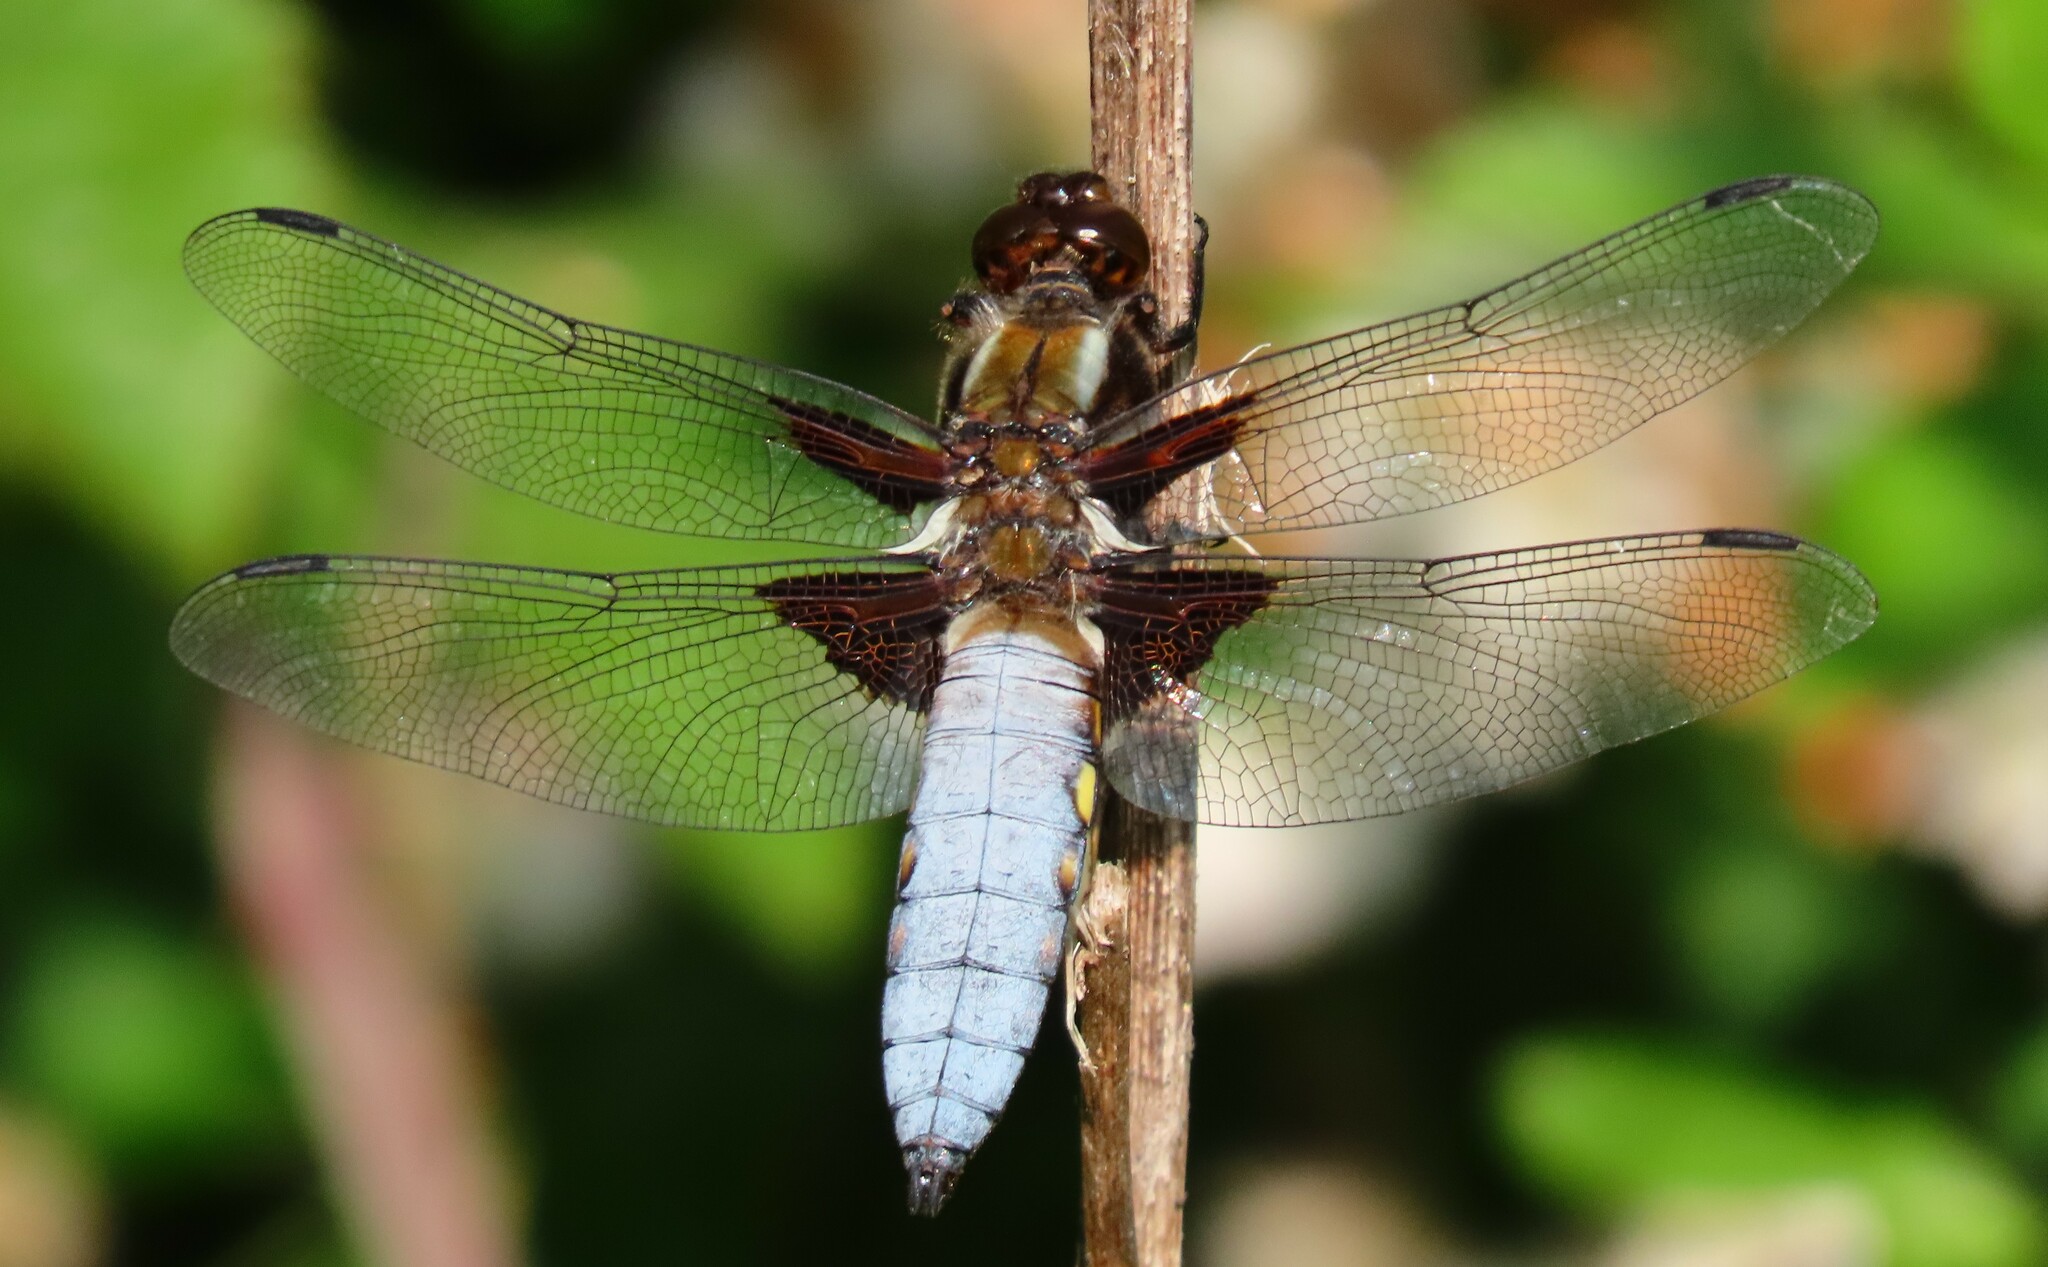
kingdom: Animalia
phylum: Arthropoda
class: Insecta
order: Odonata
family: Libellulidae
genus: Libellula
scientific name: Libellula depressa
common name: Broad-bodied chaser
